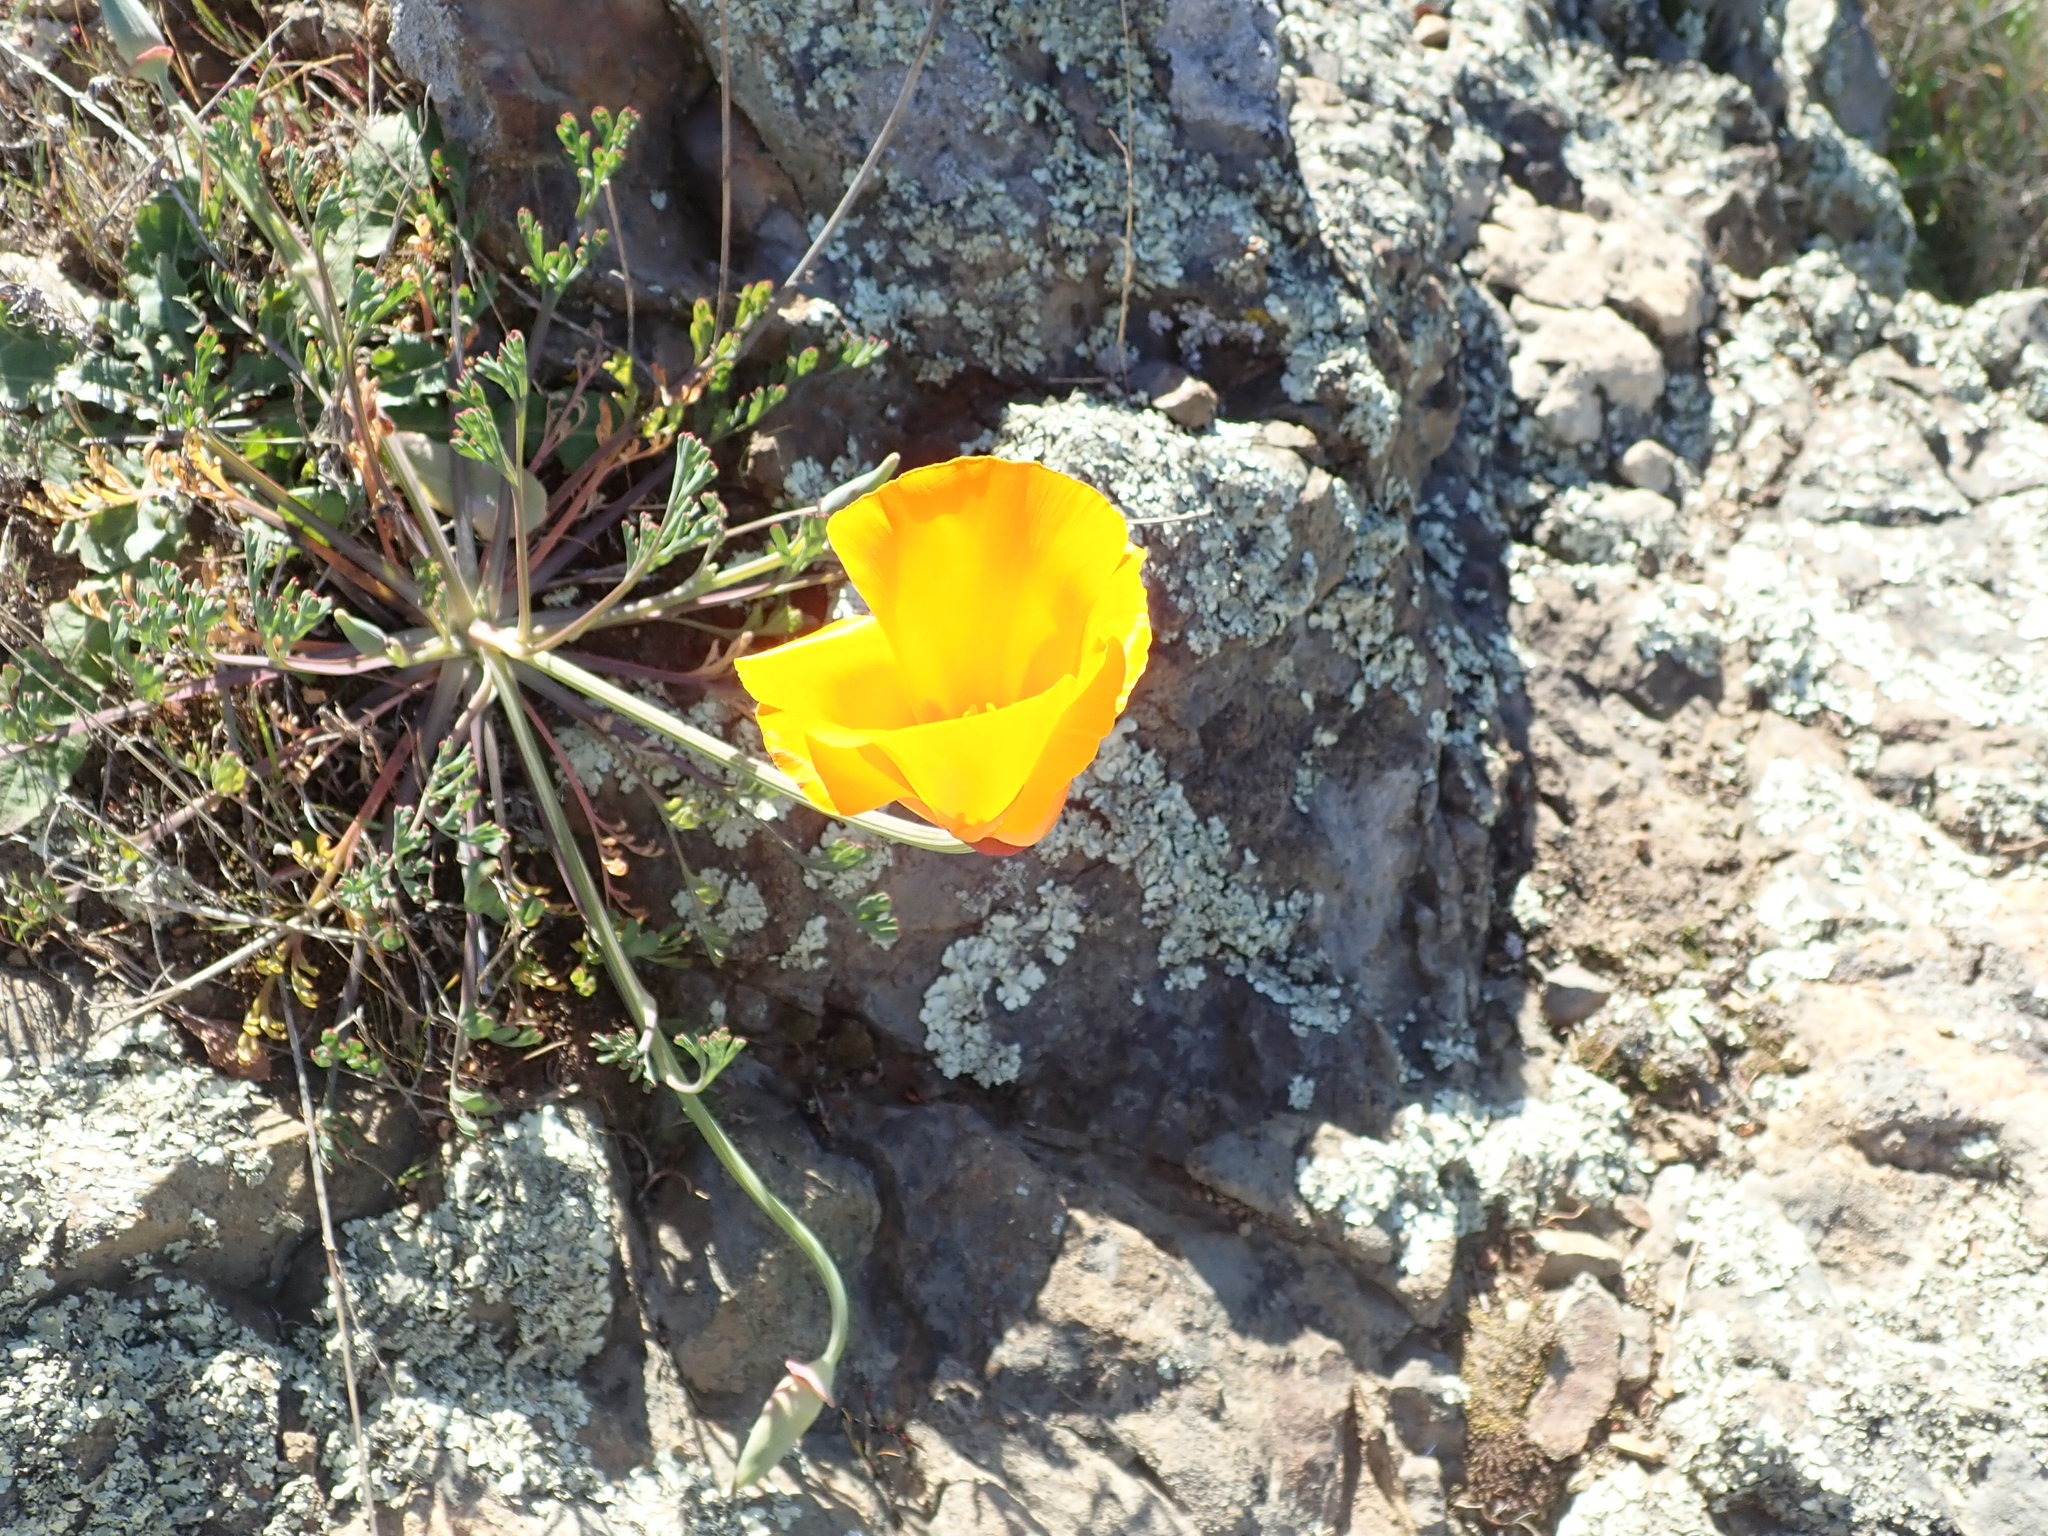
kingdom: Plantae
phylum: Tracheophyta
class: Magnoliopsida
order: Ranunculales
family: Papaveraceae
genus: Eschscholzia
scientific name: Eschscholzia californica
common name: California poppy
